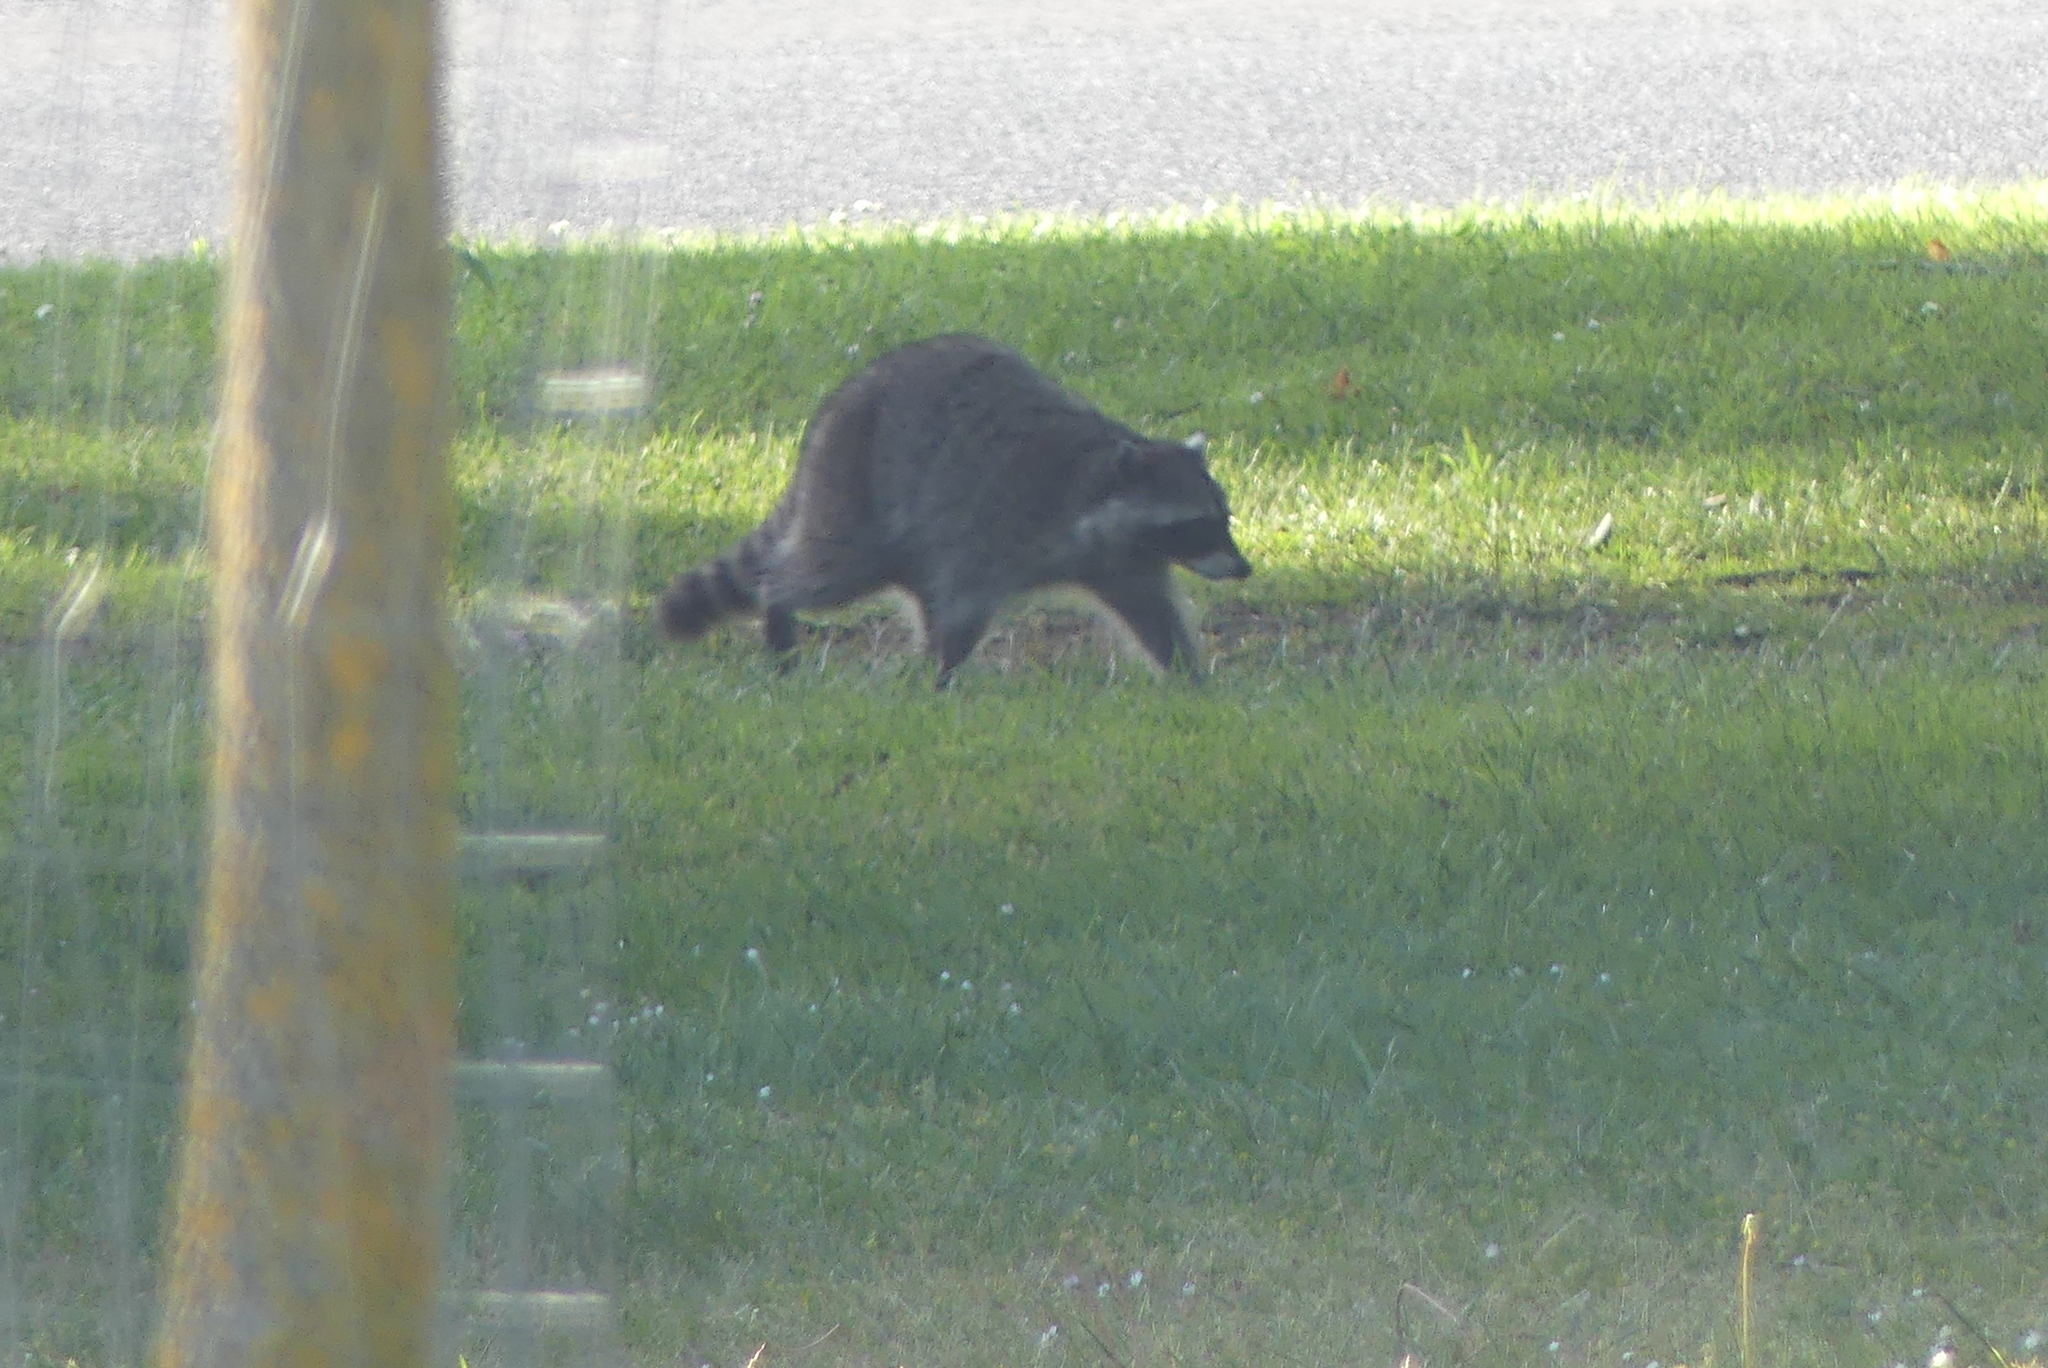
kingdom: Animalia
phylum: Chordata
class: Mammalia
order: Carnivora
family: Procyonidae
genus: Procyon
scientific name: Procyon lotor
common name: Raccoon
